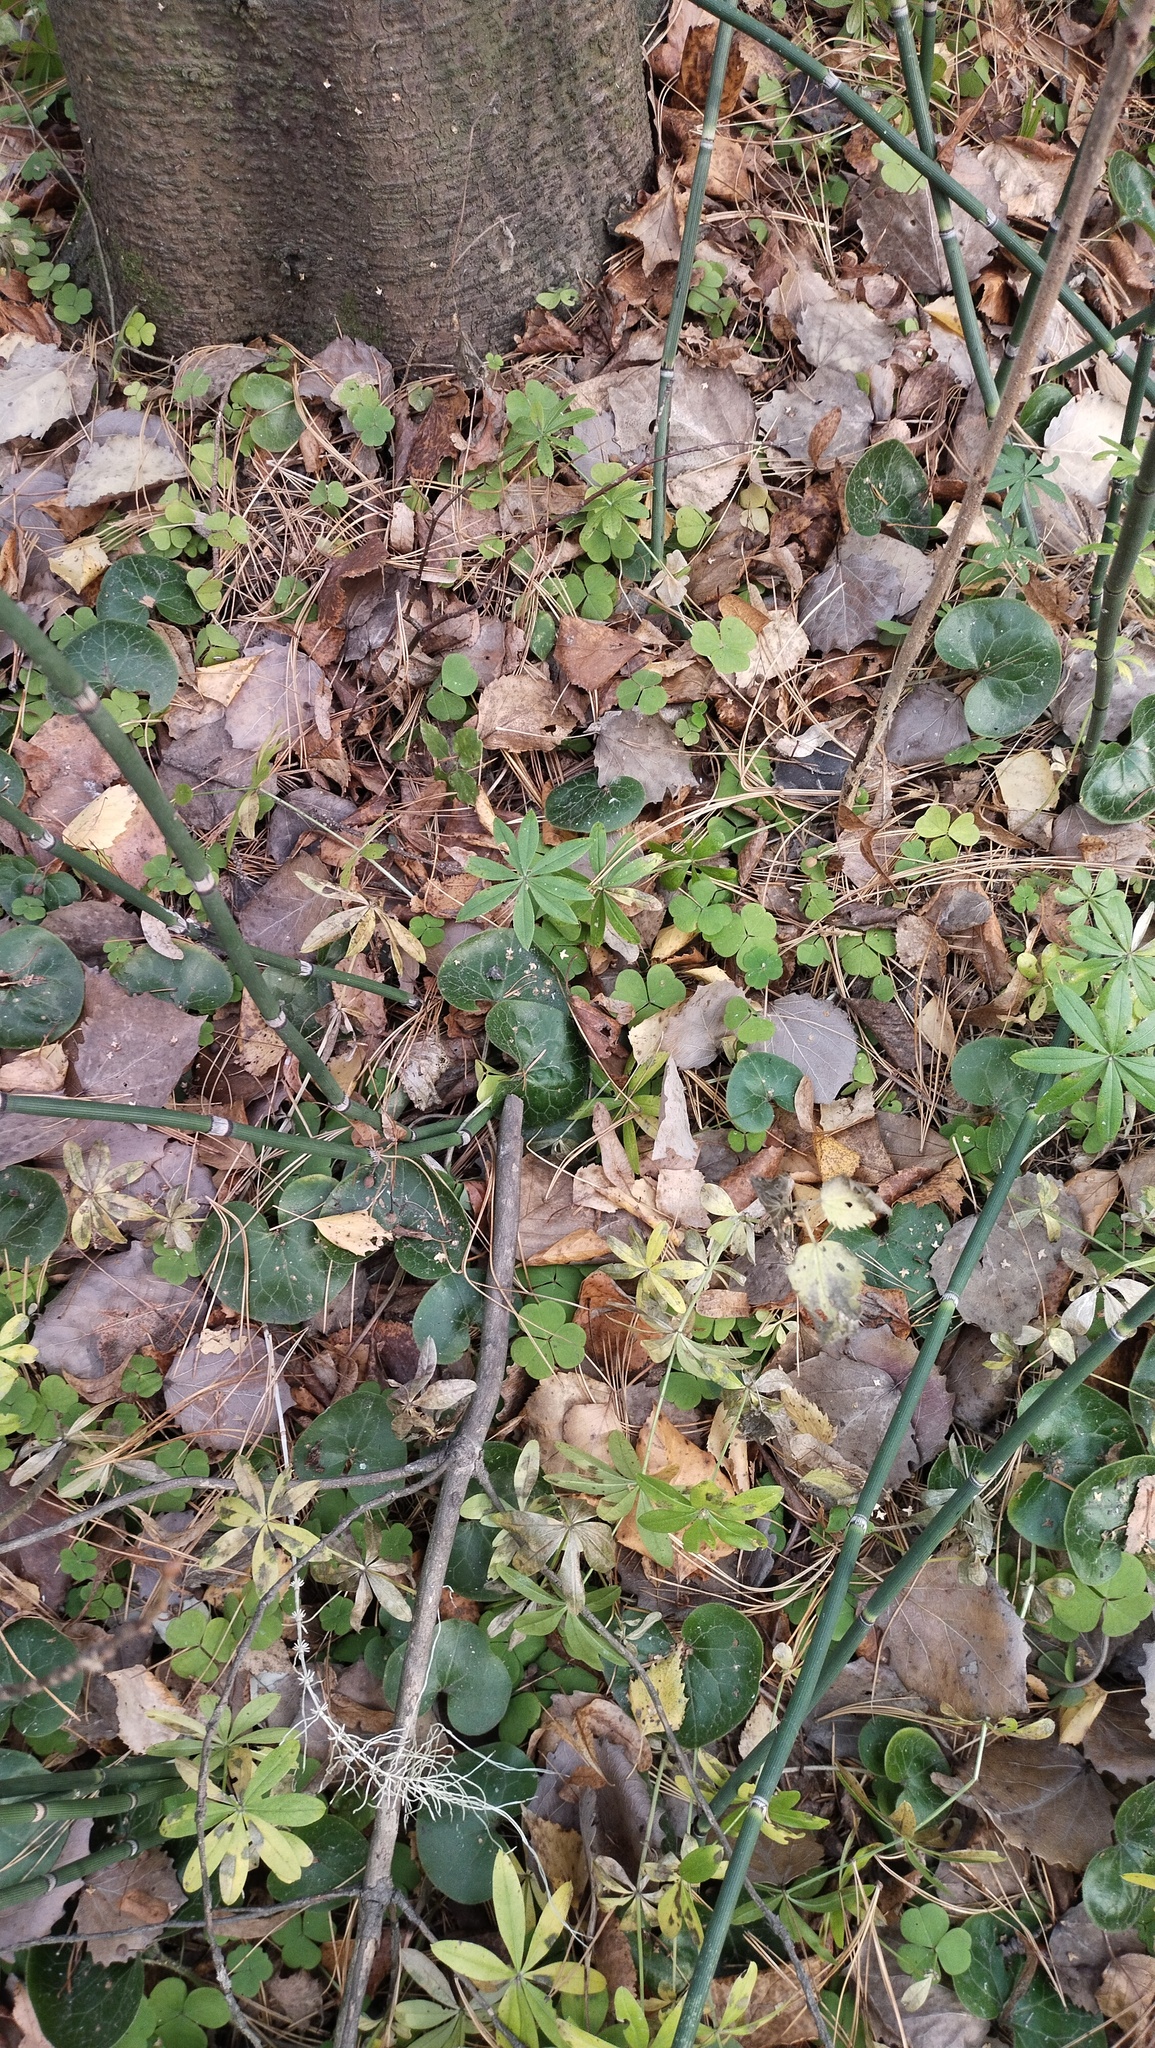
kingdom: Plantae
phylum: Tracheophyta
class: Magnoliopsida
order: Piperales
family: Aristolochiaceae
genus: Asarum
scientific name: Asarum europaeum
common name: Asarabacca
